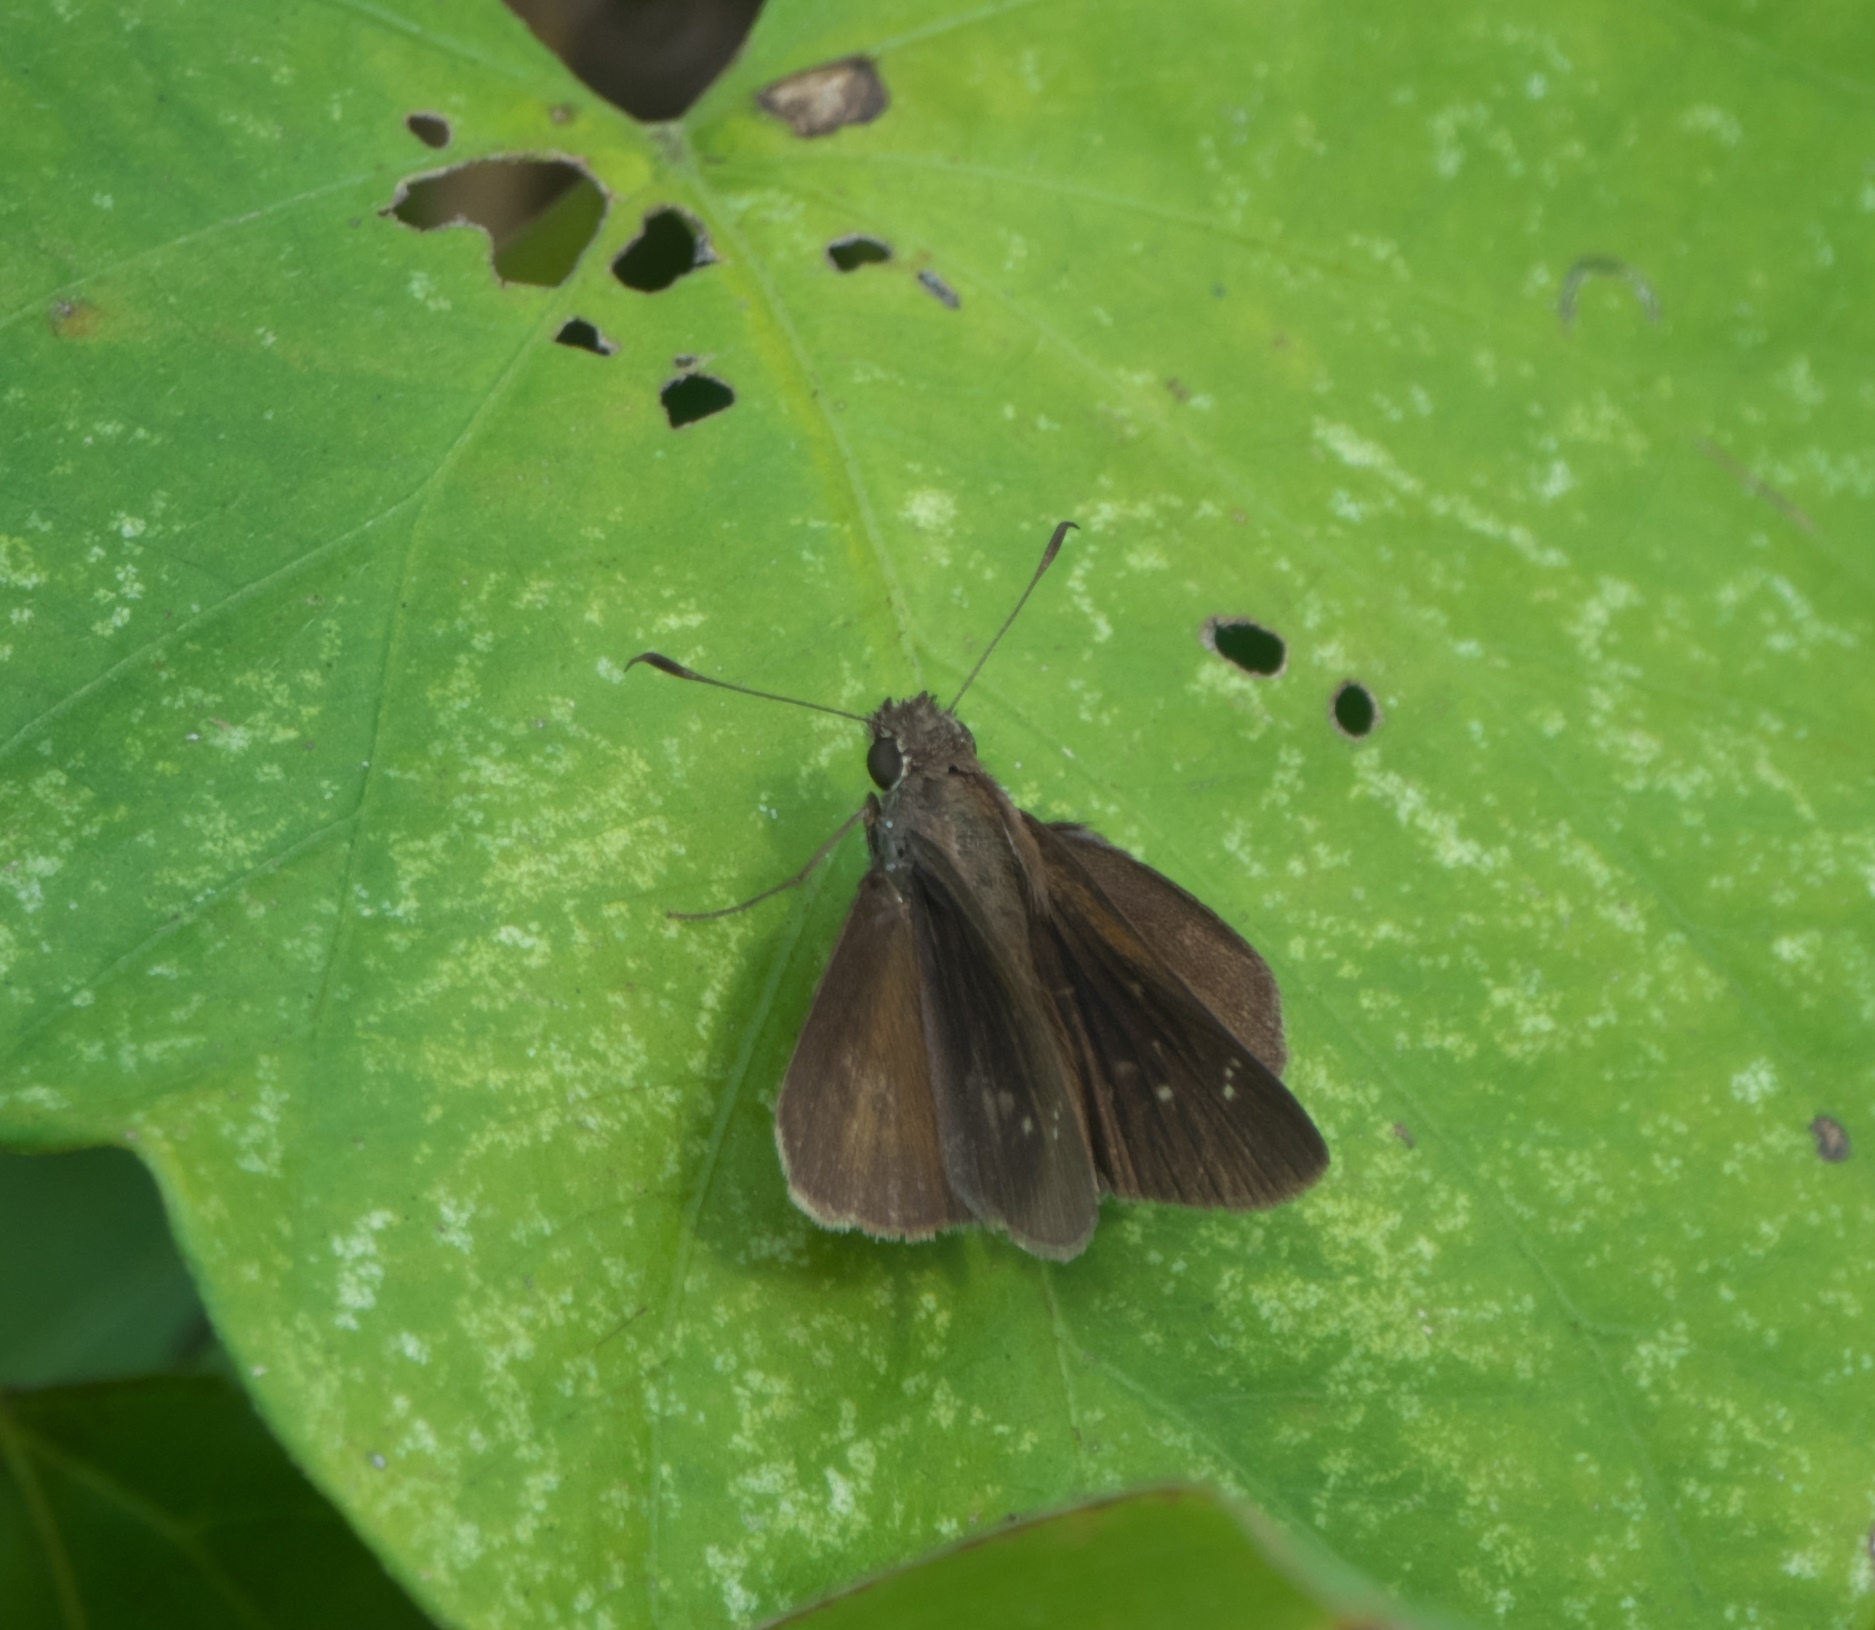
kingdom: Animalia
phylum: Arthropoda
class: Insecta
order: Lepidoptera
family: Hesperiidae
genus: Cymaenes
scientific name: Cymaenes tripunctus
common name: Dingy dotted skipper
